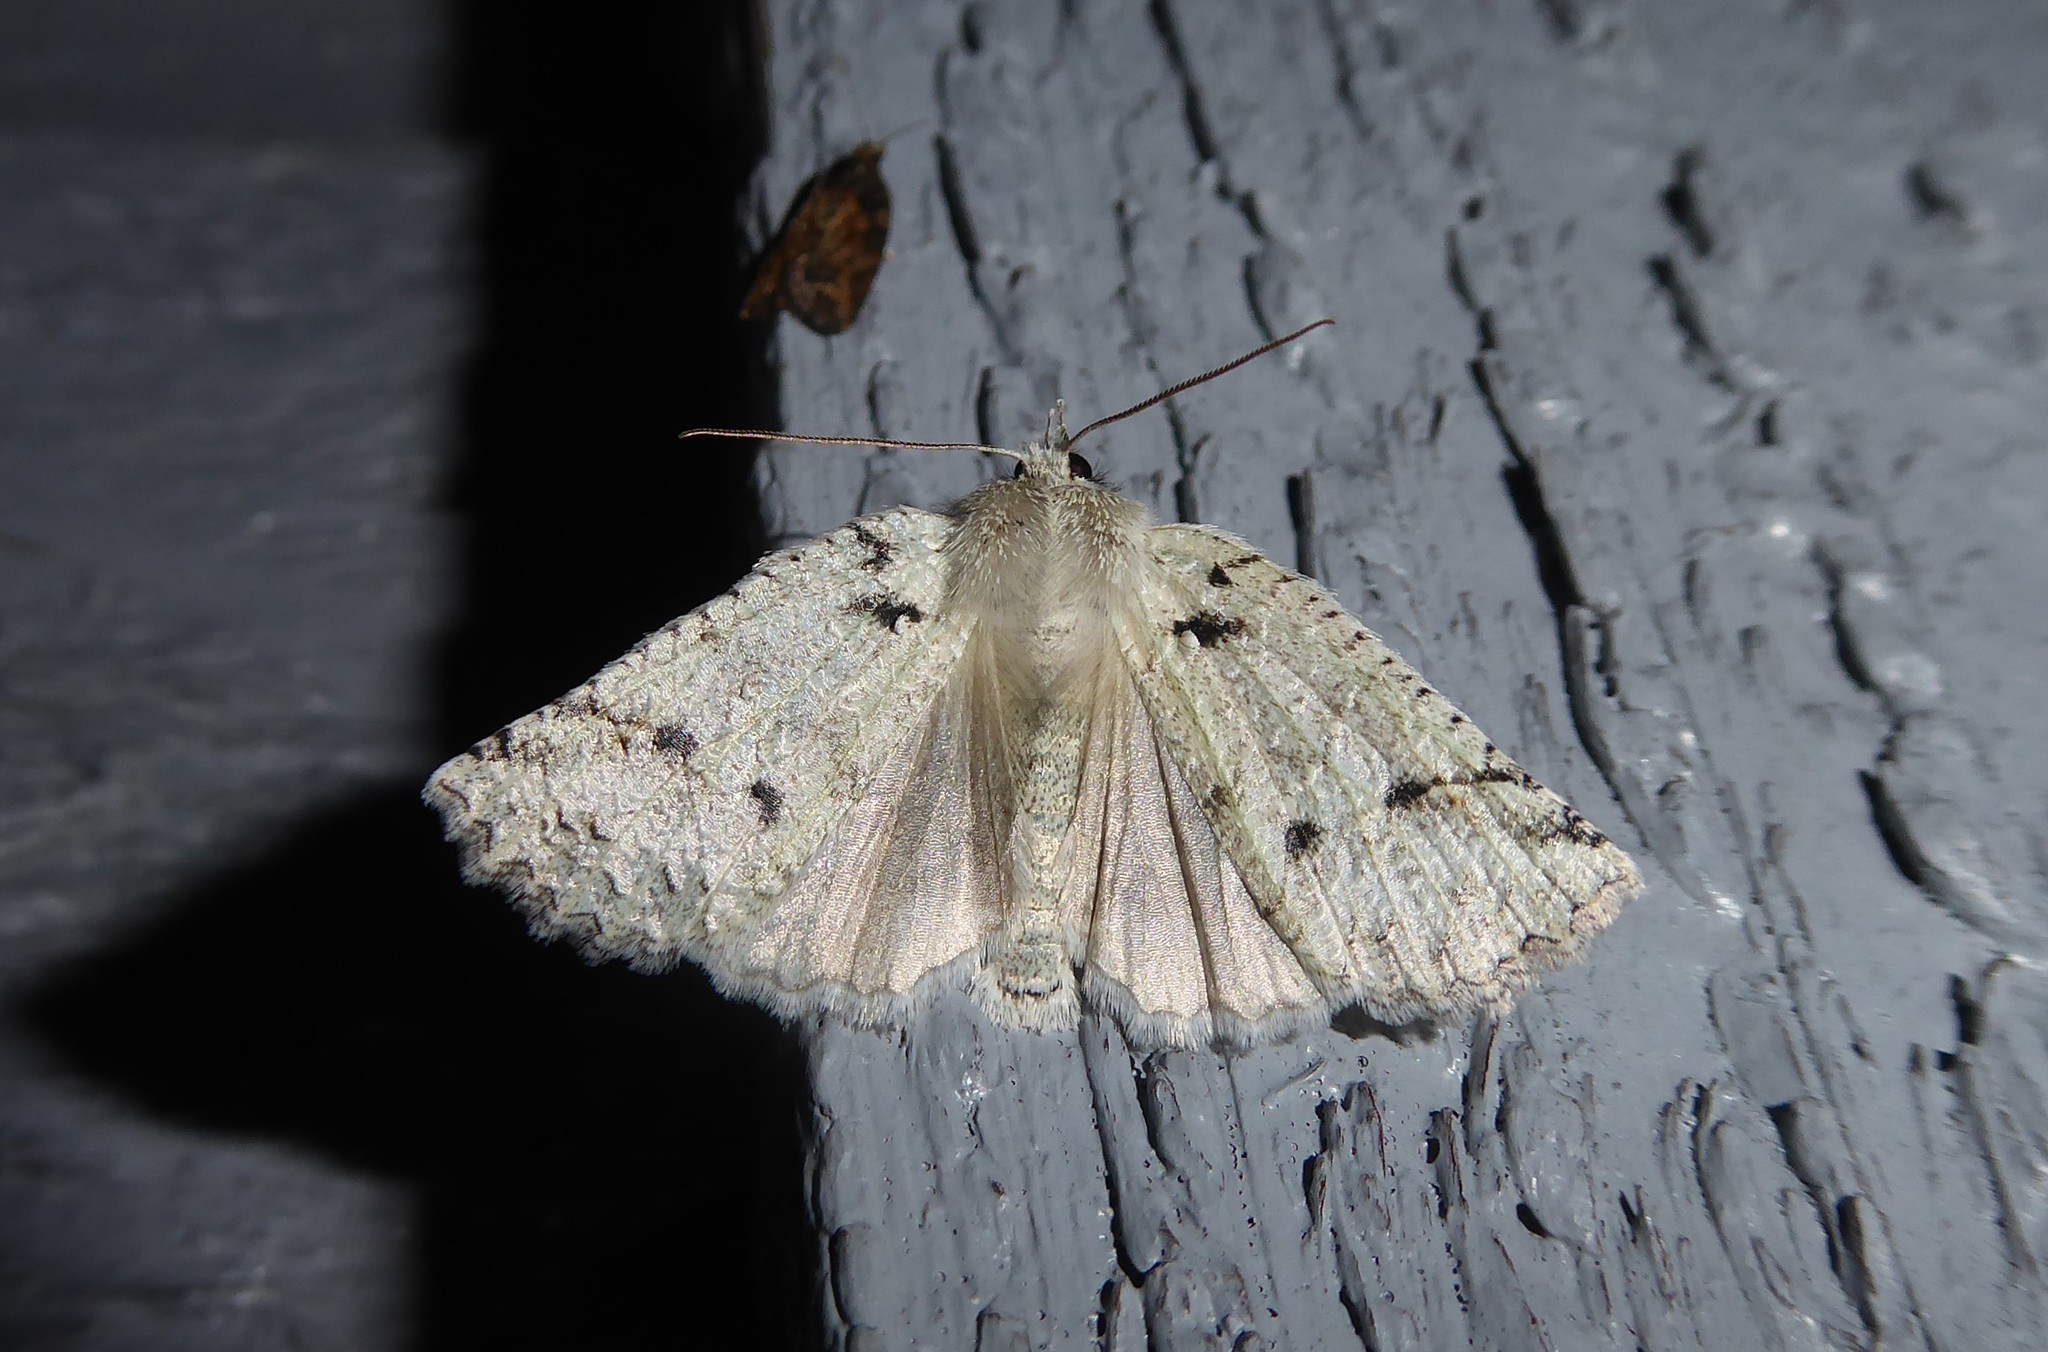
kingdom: Animalia
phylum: Arthropoda
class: Insecta
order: Lepidoptera
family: Geometridae
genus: Declana
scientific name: Declana floccosa
